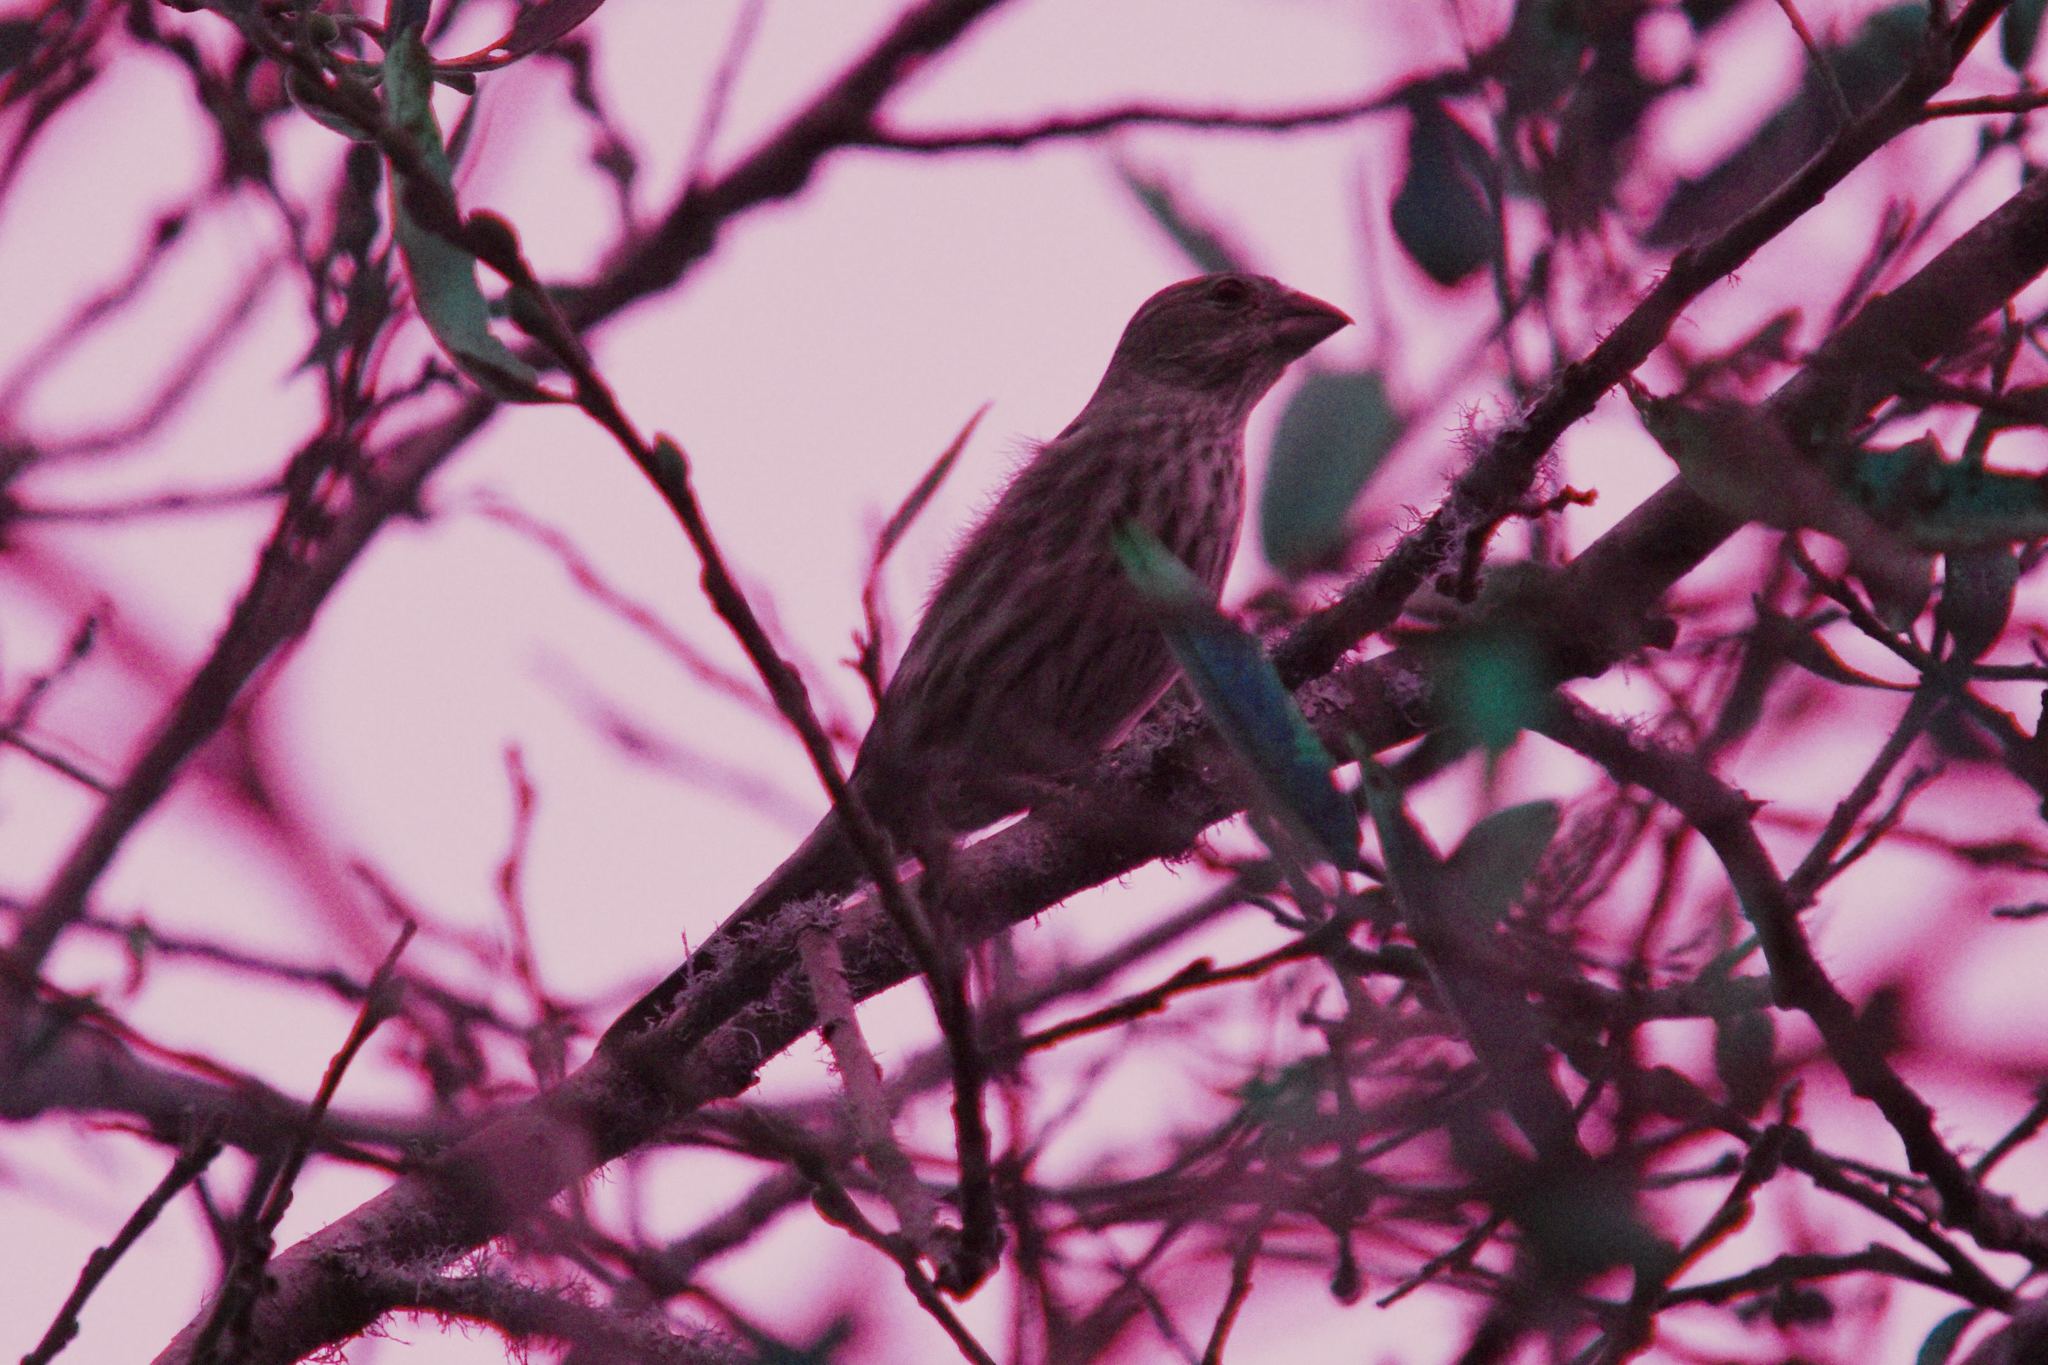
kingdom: Animalia
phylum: Chordata
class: Aves
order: Passeriformes
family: Fringillidae
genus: Haemorhous
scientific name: Haemorhous mexicanus
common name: House finch
